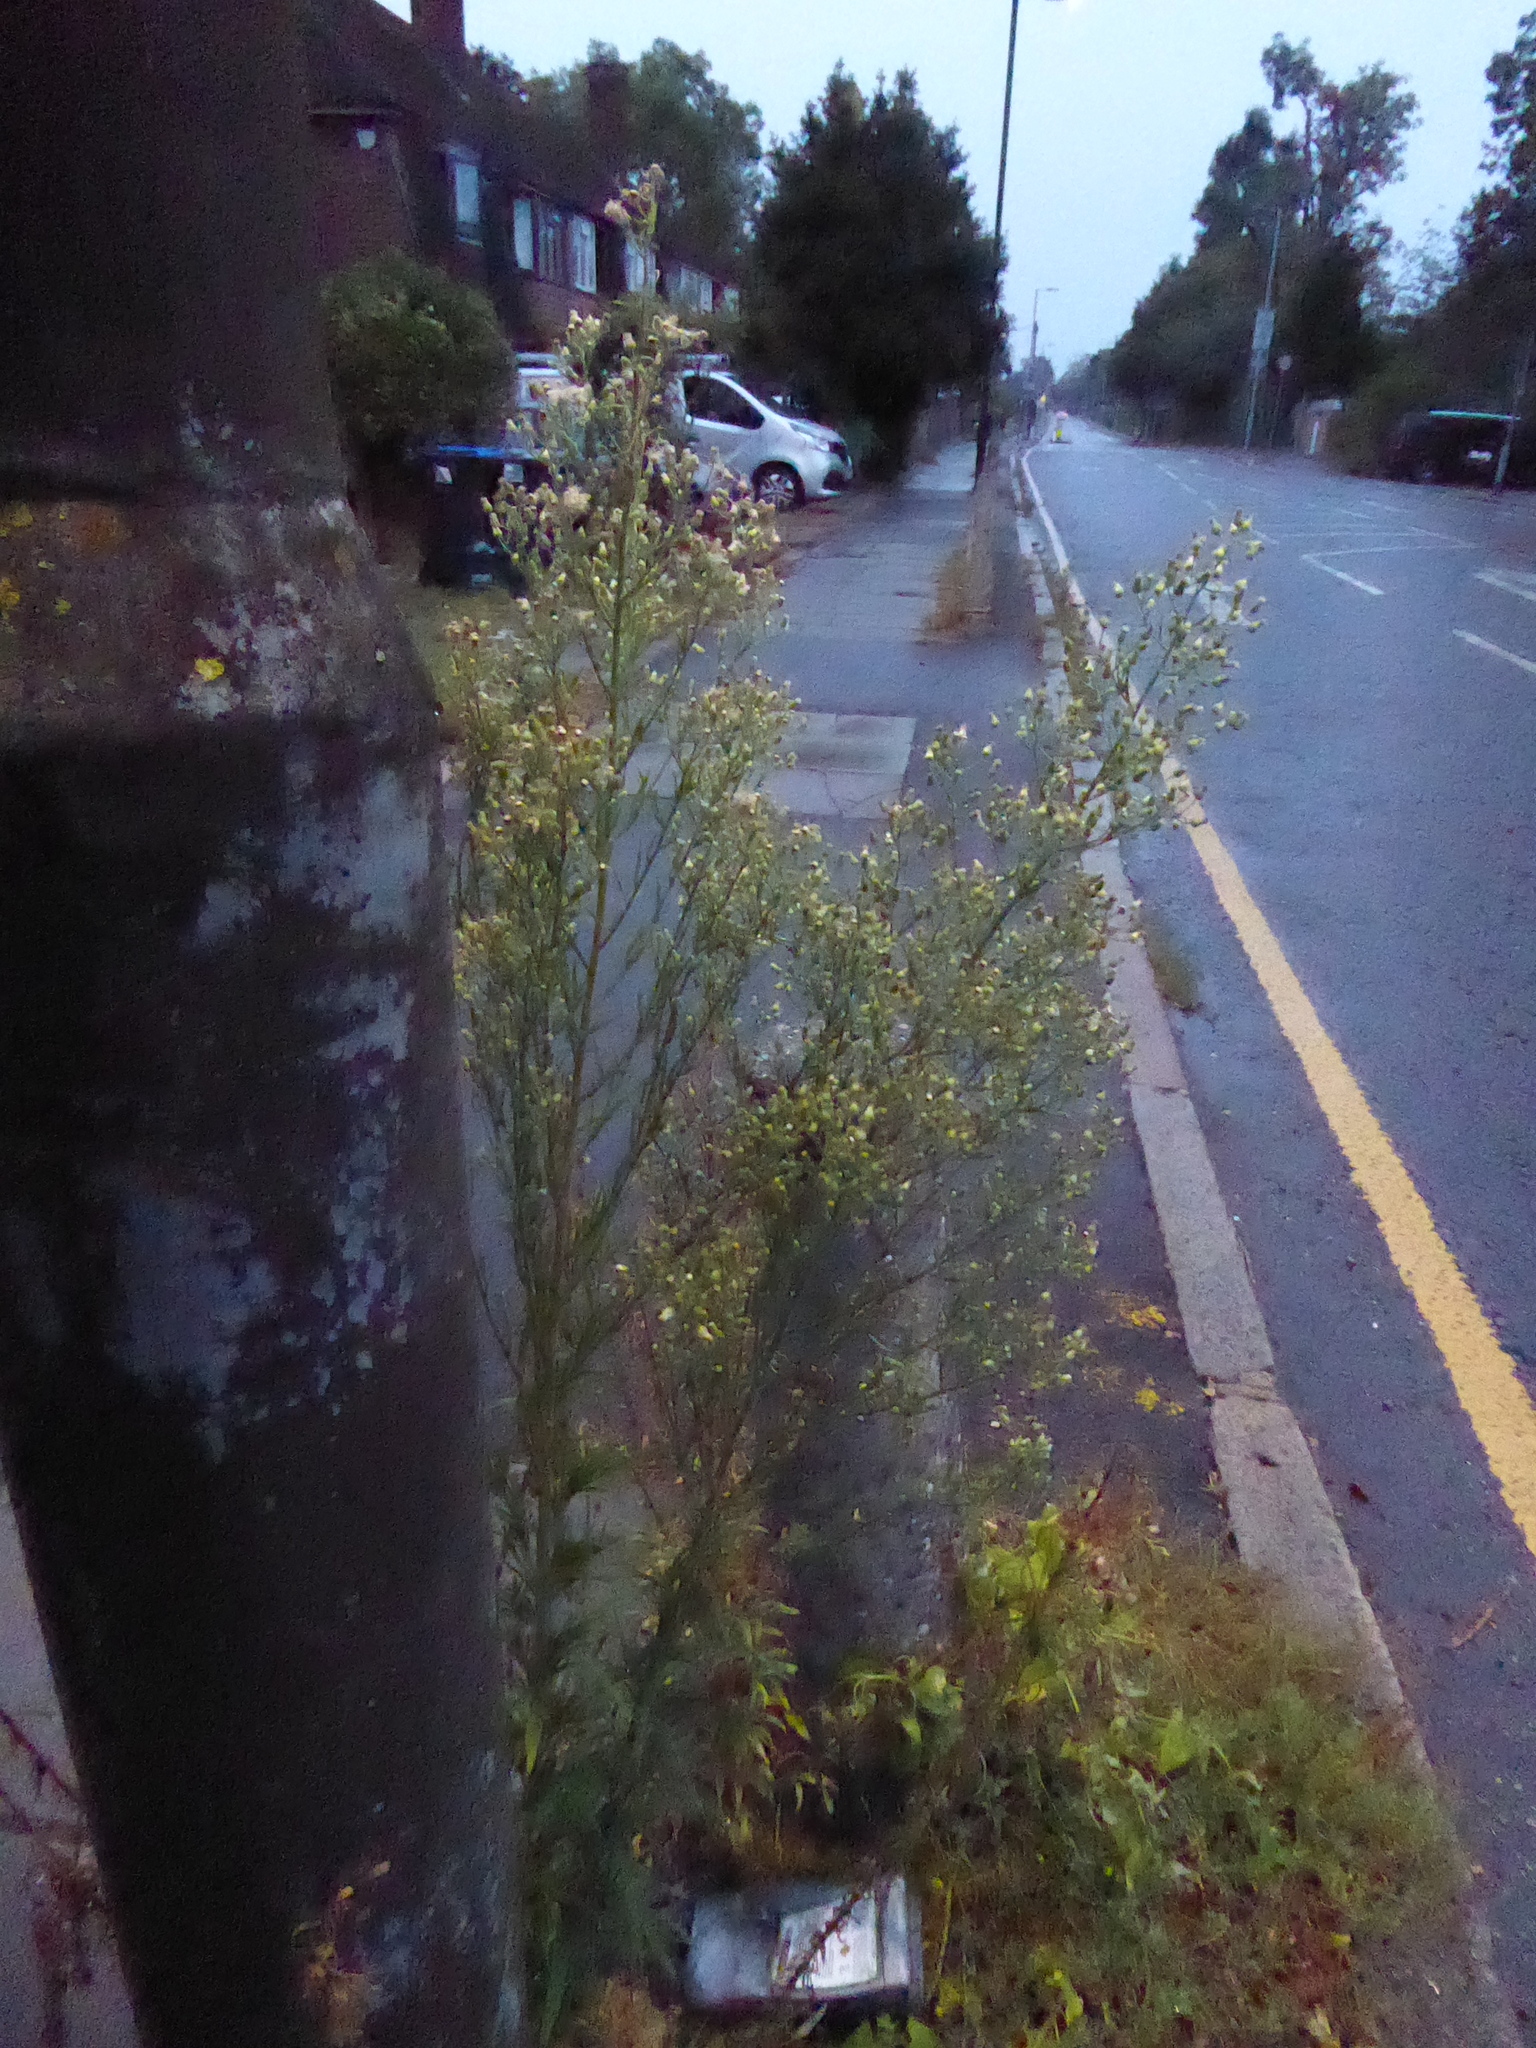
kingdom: Plantae
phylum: Tracheophyta
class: Magnoliopsida
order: Asterales
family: Asteraceae
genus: Erigeron
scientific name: Erigeron sumatrensis
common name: Daisy
